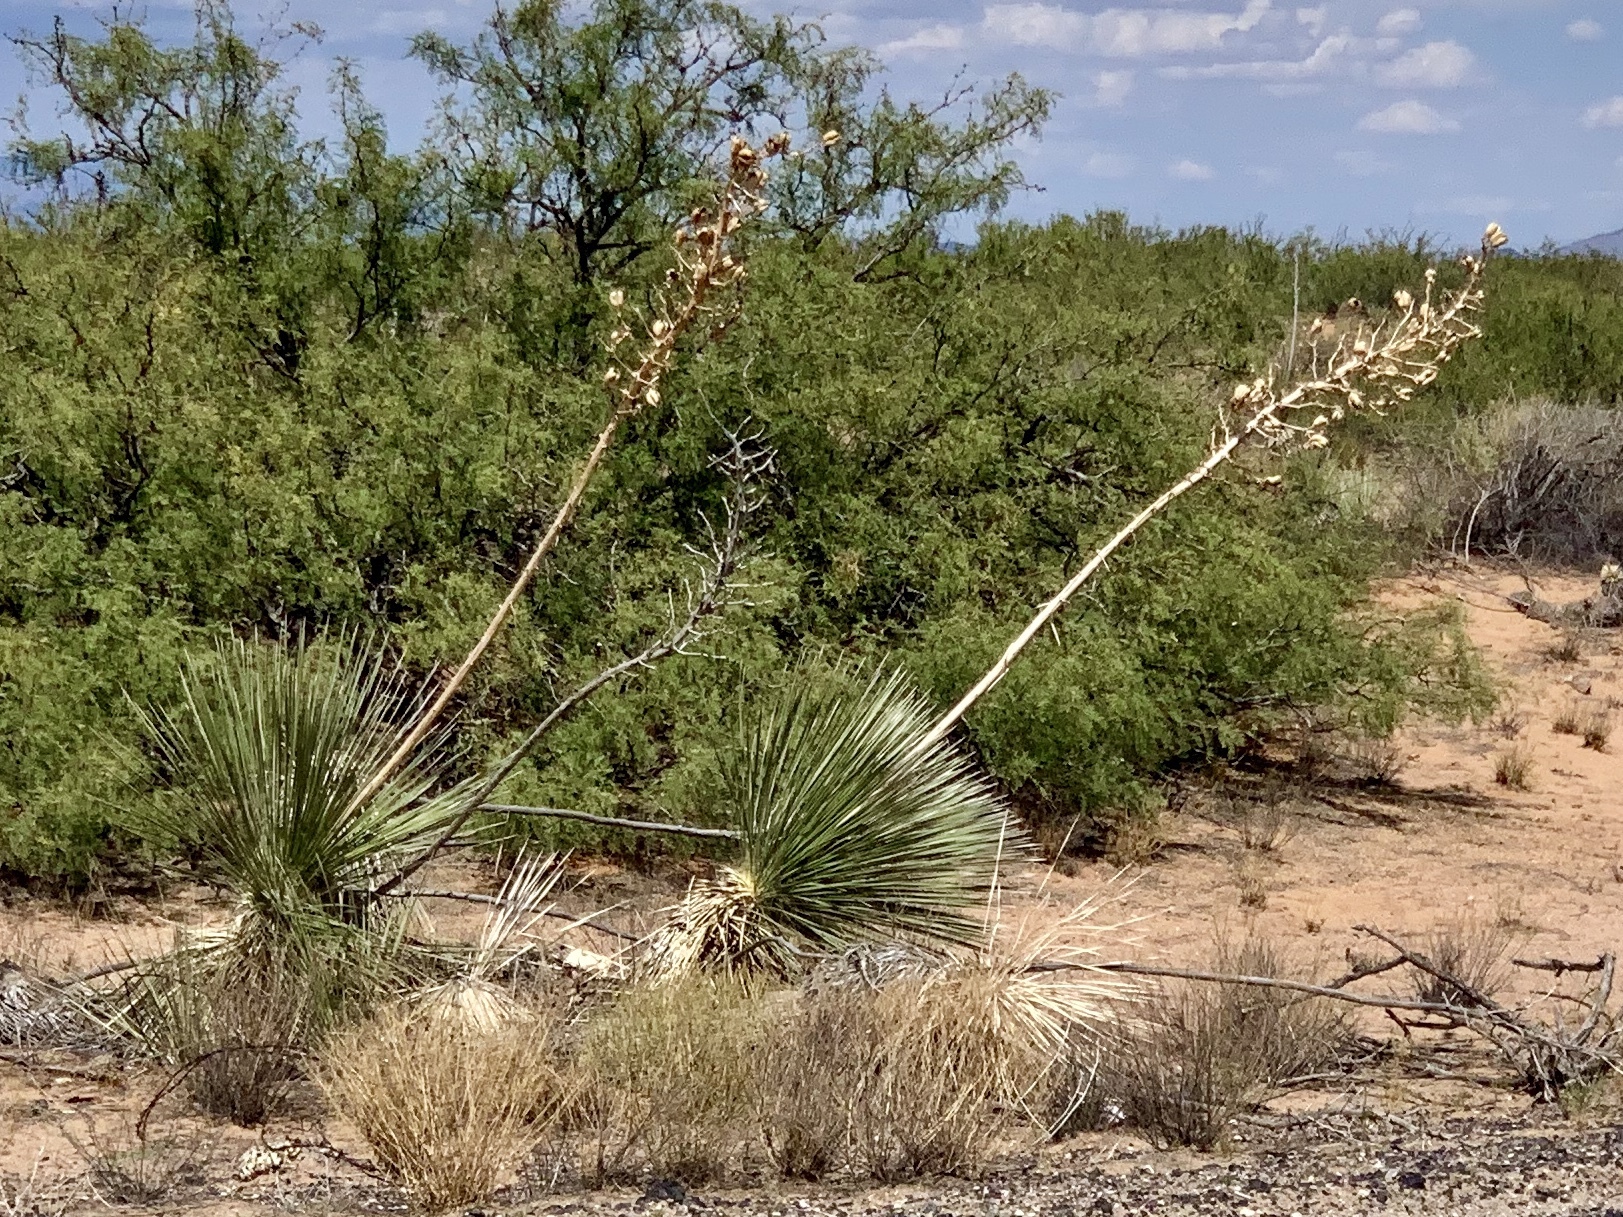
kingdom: Plantae
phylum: Tracheophyta
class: Liliopsida
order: Asparagales
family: Asparagaceae
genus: Yucca
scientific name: Yucca elata
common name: Palmella
